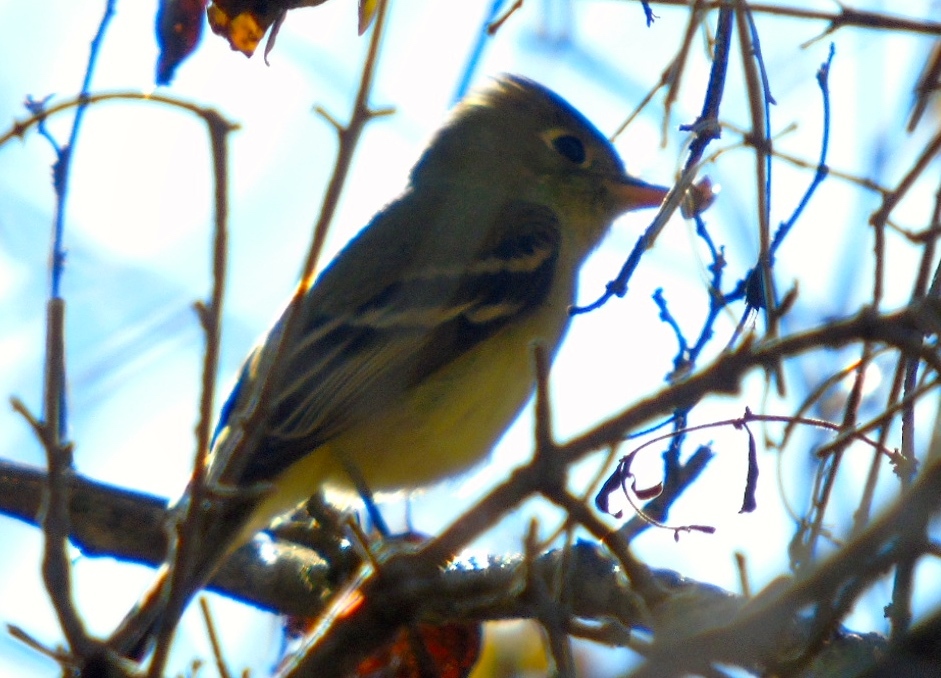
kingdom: Animalia
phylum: Chordata
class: Aves
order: Passeriformes
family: Tyrannidae
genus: Empidonax
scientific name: Empidonax difficilis
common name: Pacific-slope flycatcher
